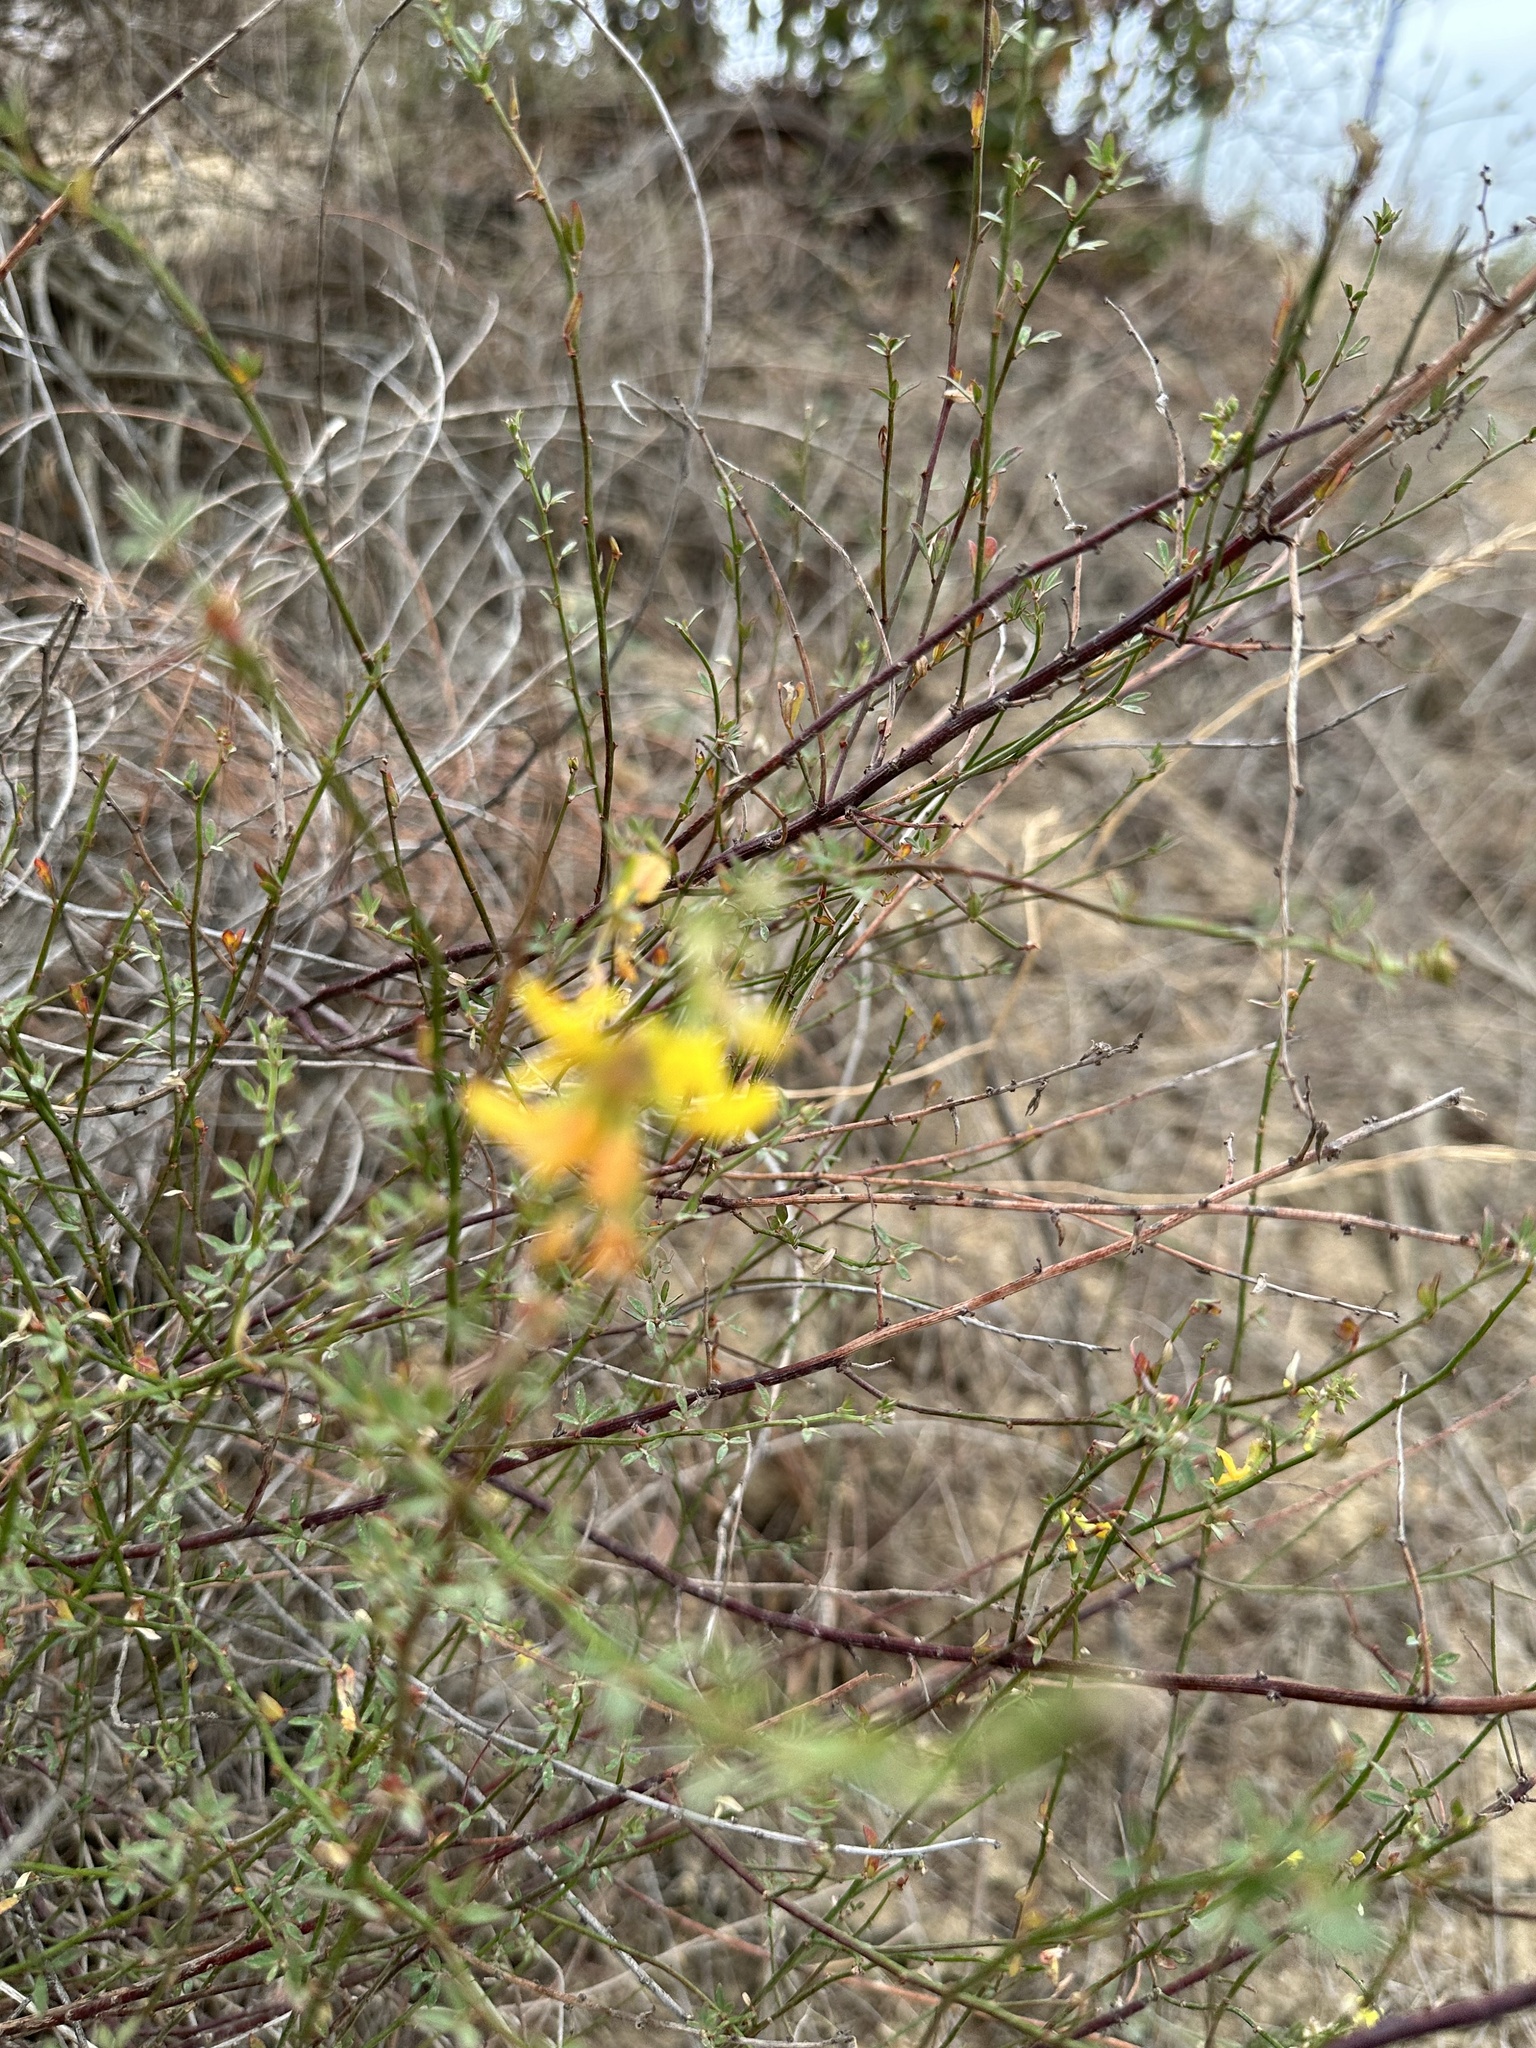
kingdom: Plantae
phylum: Tracheophyta
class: Magnoliopsida
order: Fabales
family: Fabaceae
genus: Acmispon
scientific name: Acmispon glaber
